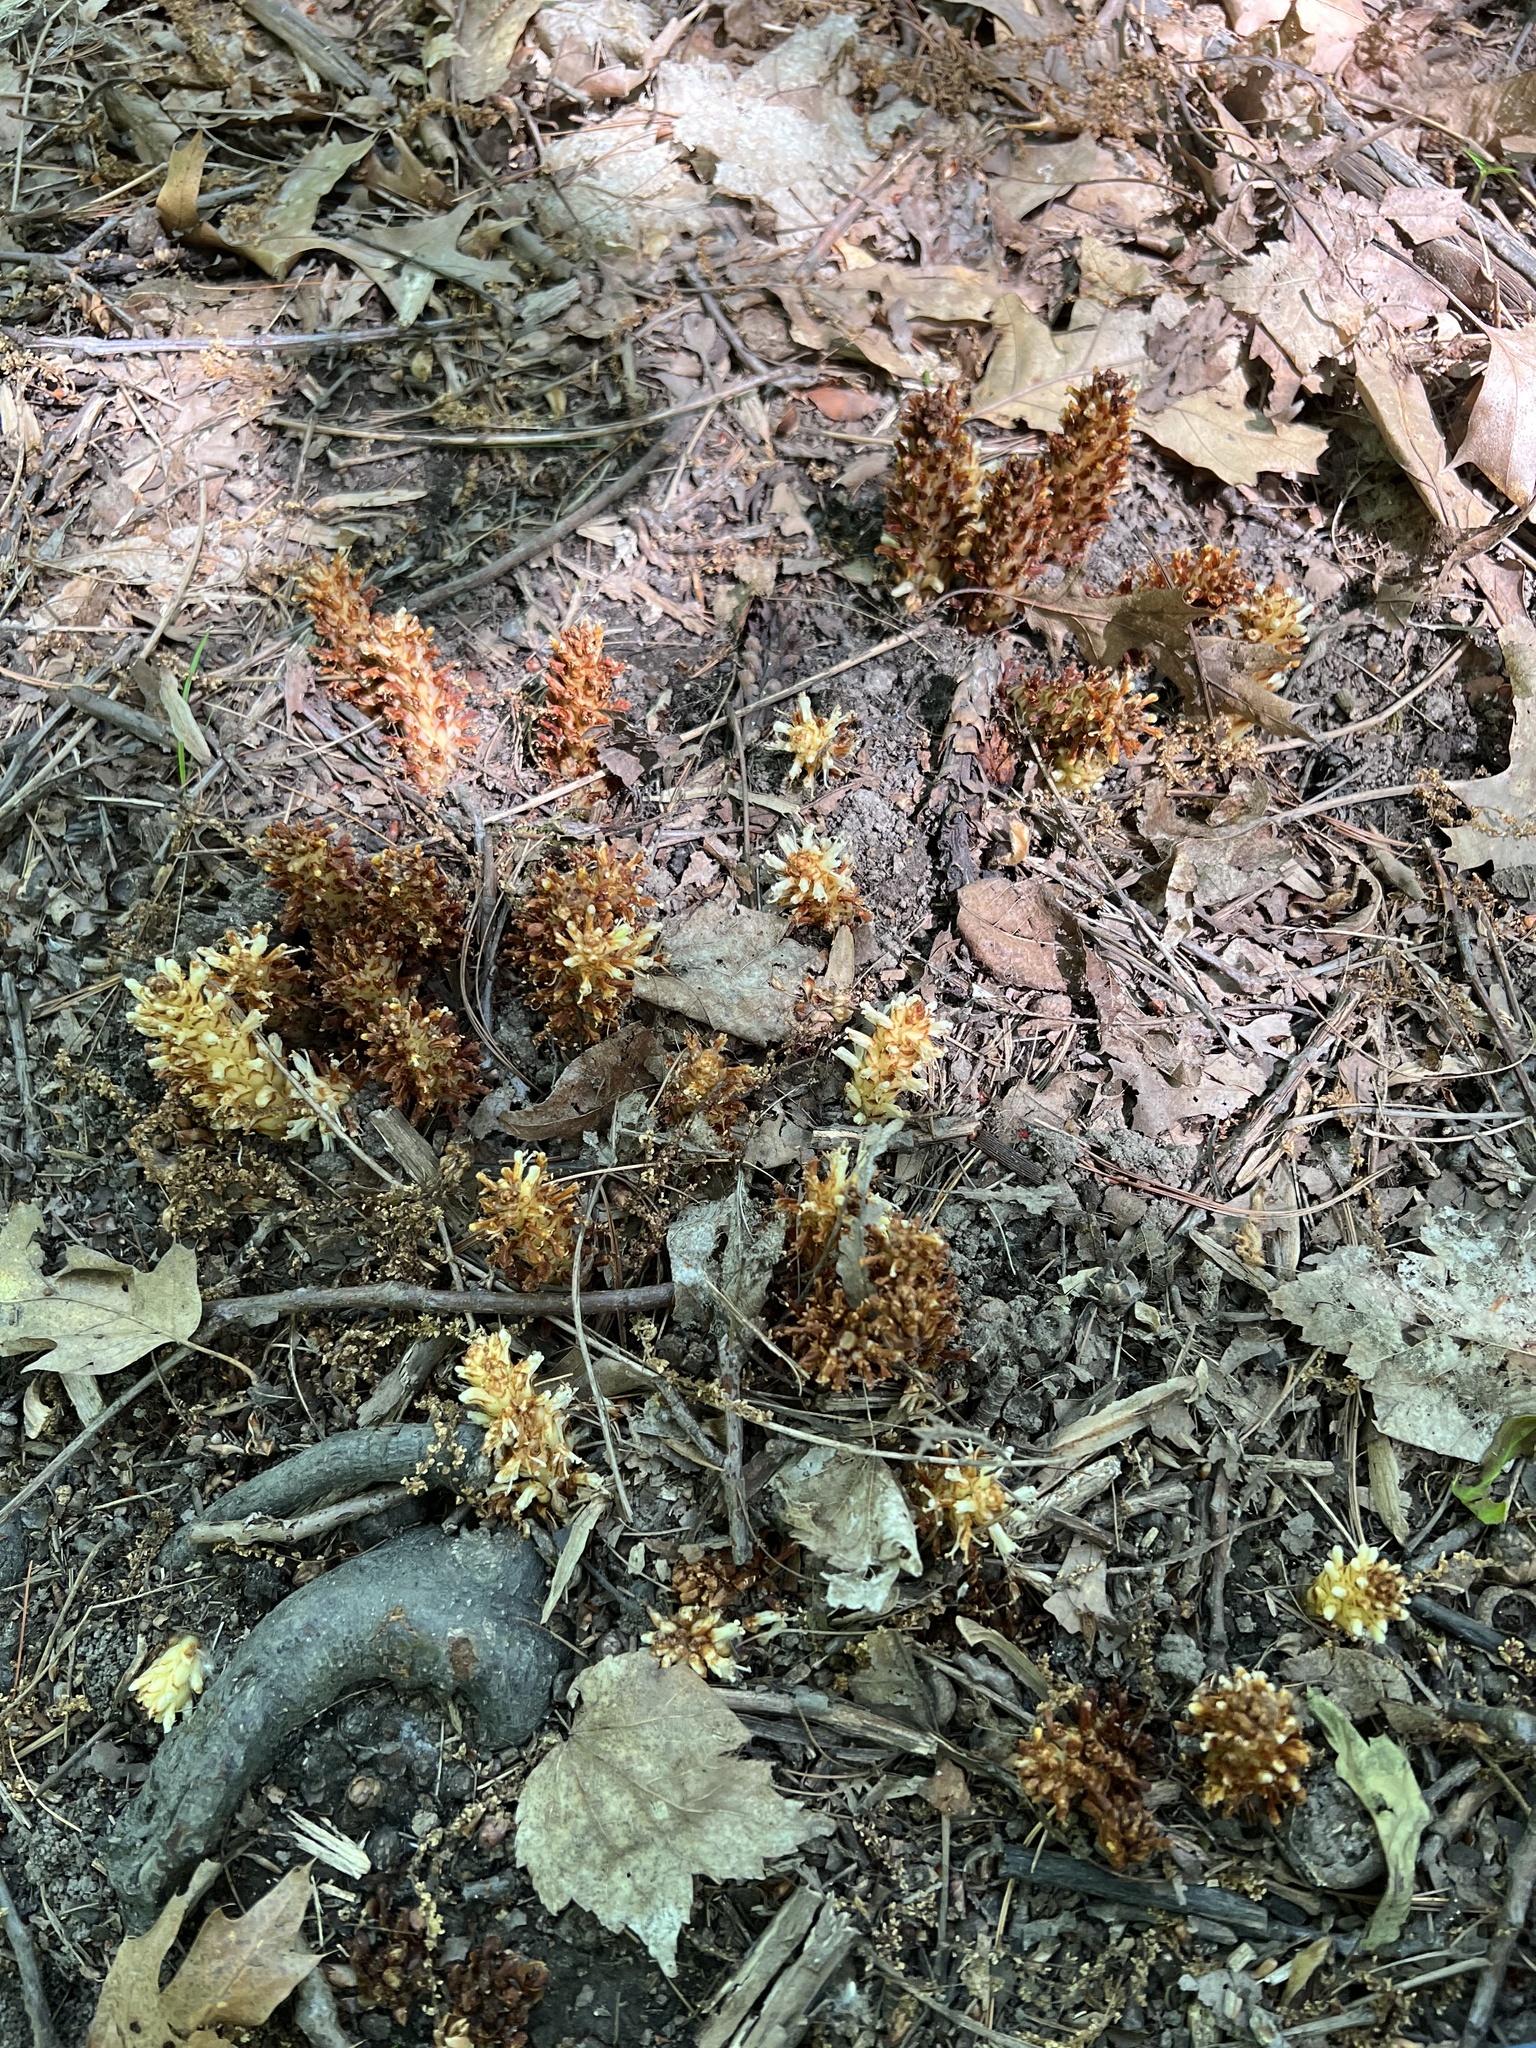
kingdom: Plantae
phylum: Tracheophyta
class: Magnoliopsida
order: Lamiales
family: Orobanchaceae
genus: Conopholis
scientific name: Conopholis americana
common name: American cancer-root
